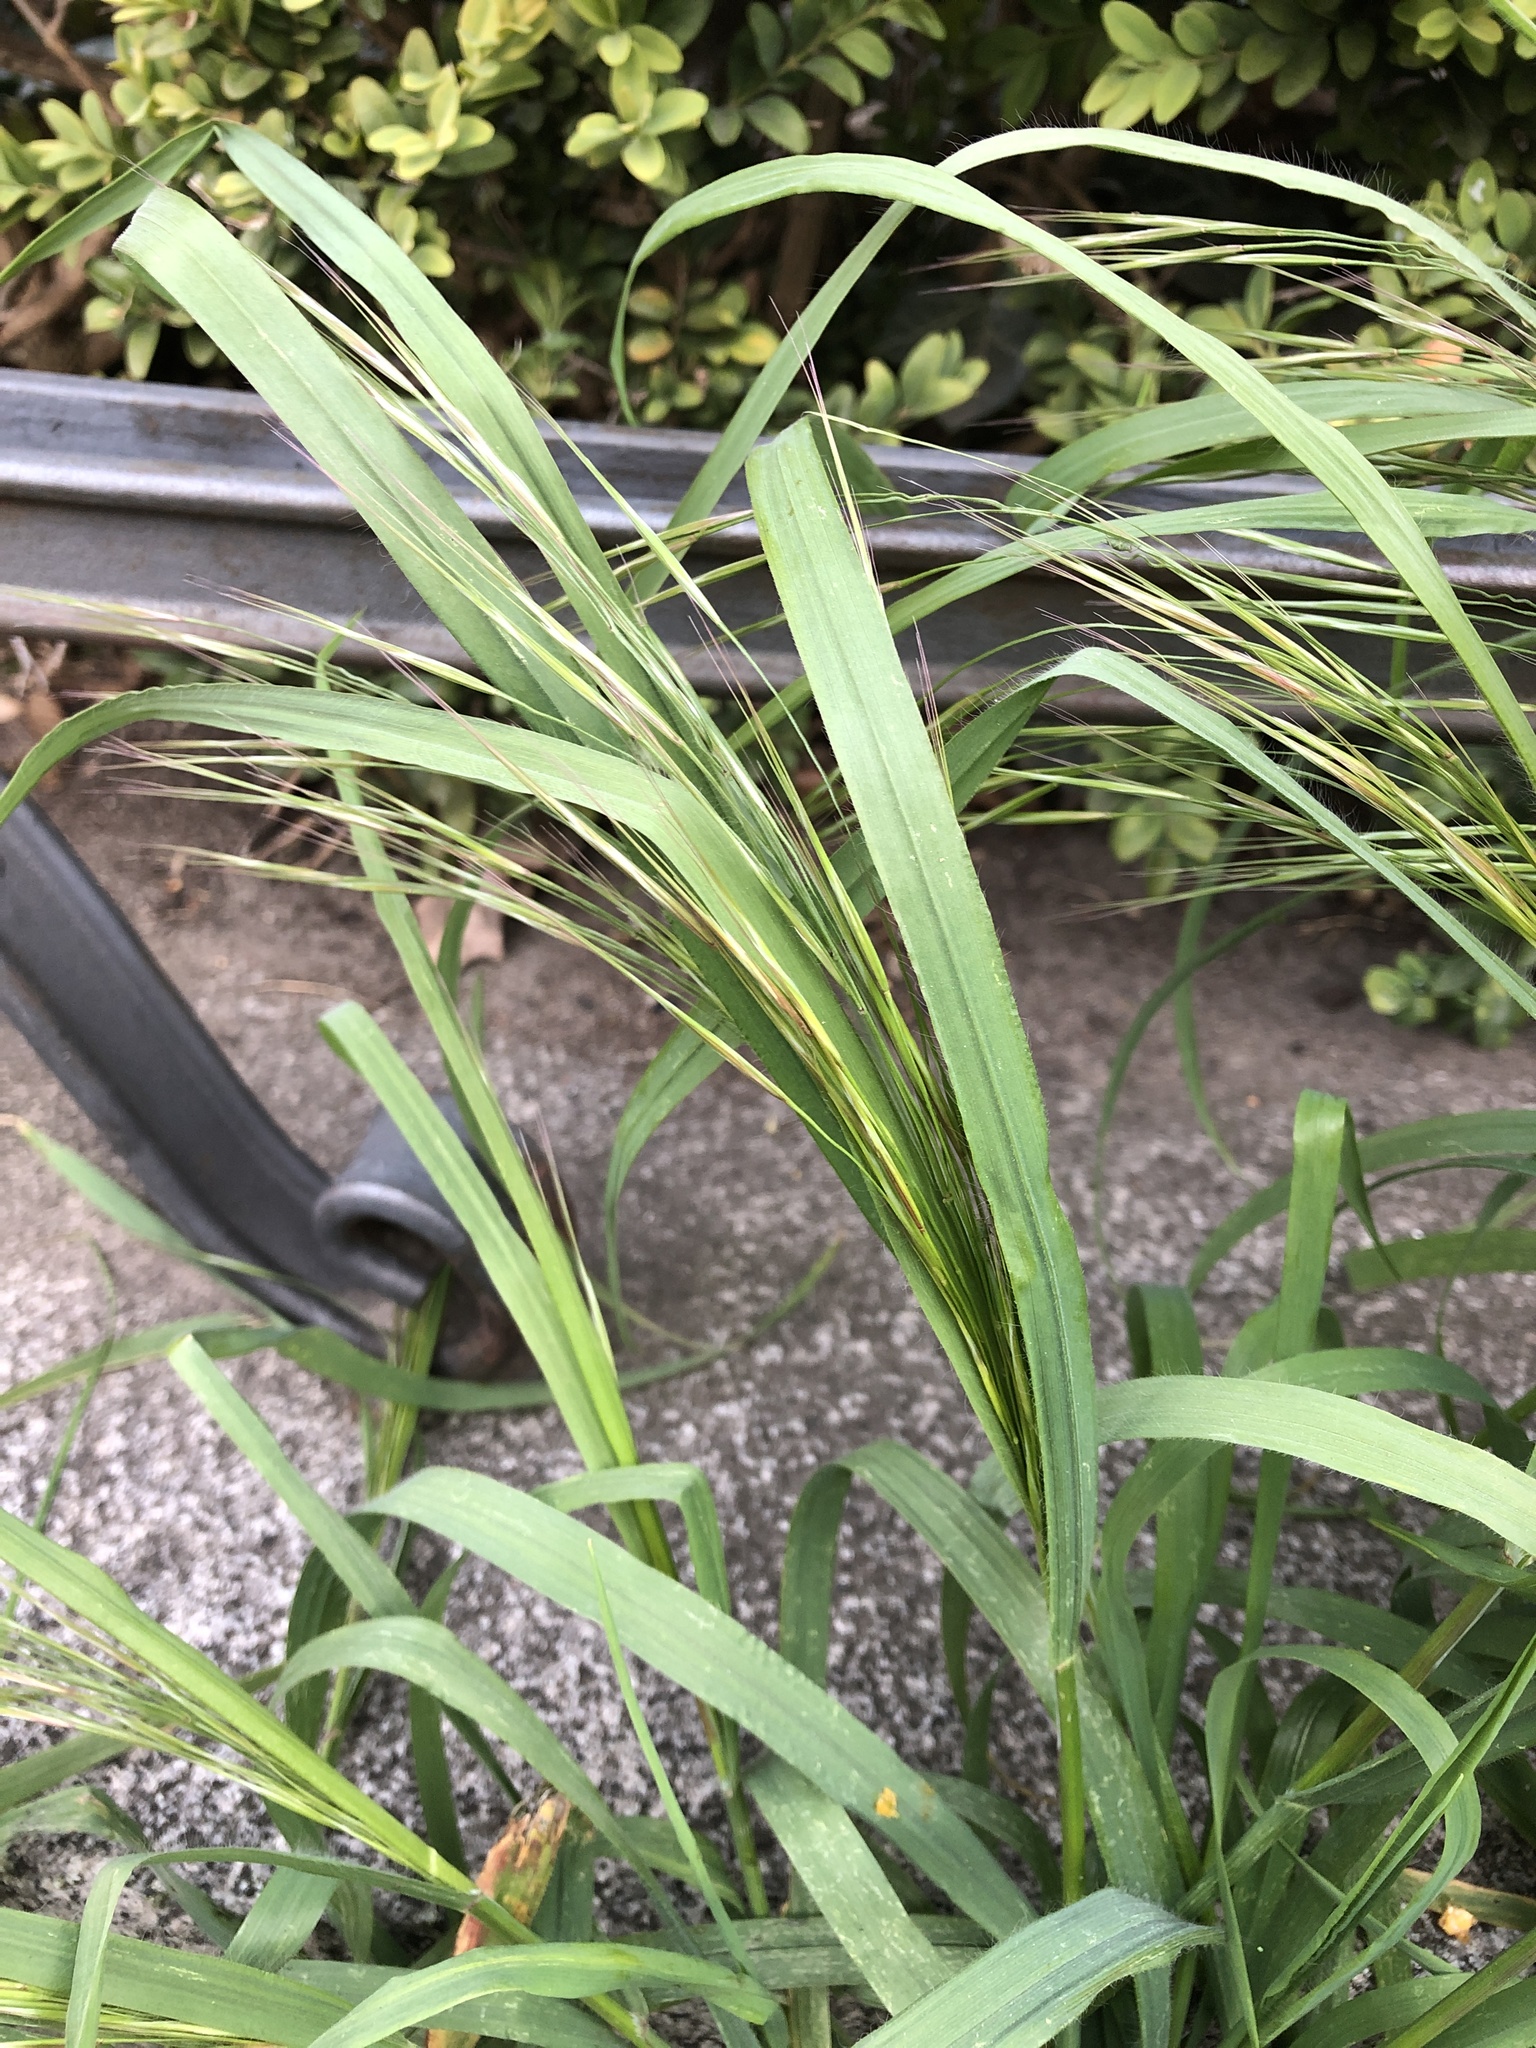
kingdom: Plantae
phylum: Tracheophyta
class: Liliopsida
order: Poales
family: Poaceae
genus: Bromus
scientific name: Bromus sterilis
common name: Poverty brome
